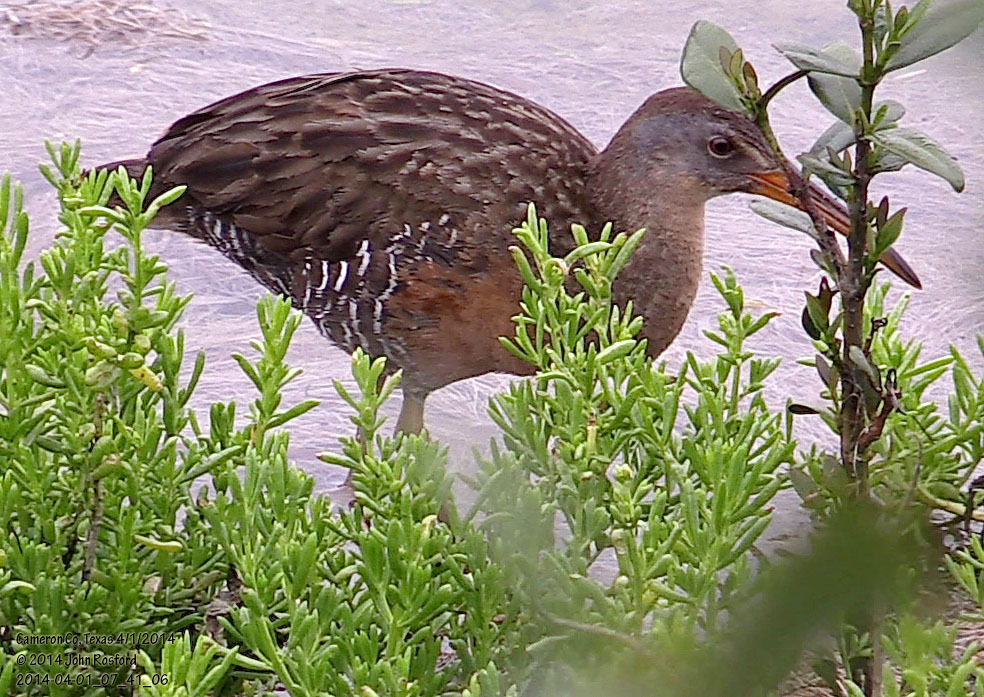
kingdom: Animalia
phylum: Chordata
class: Aves
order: Gruiformes
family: Rallidae
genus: Rallus
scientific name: Rallus crepitans
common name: Clapper rail
